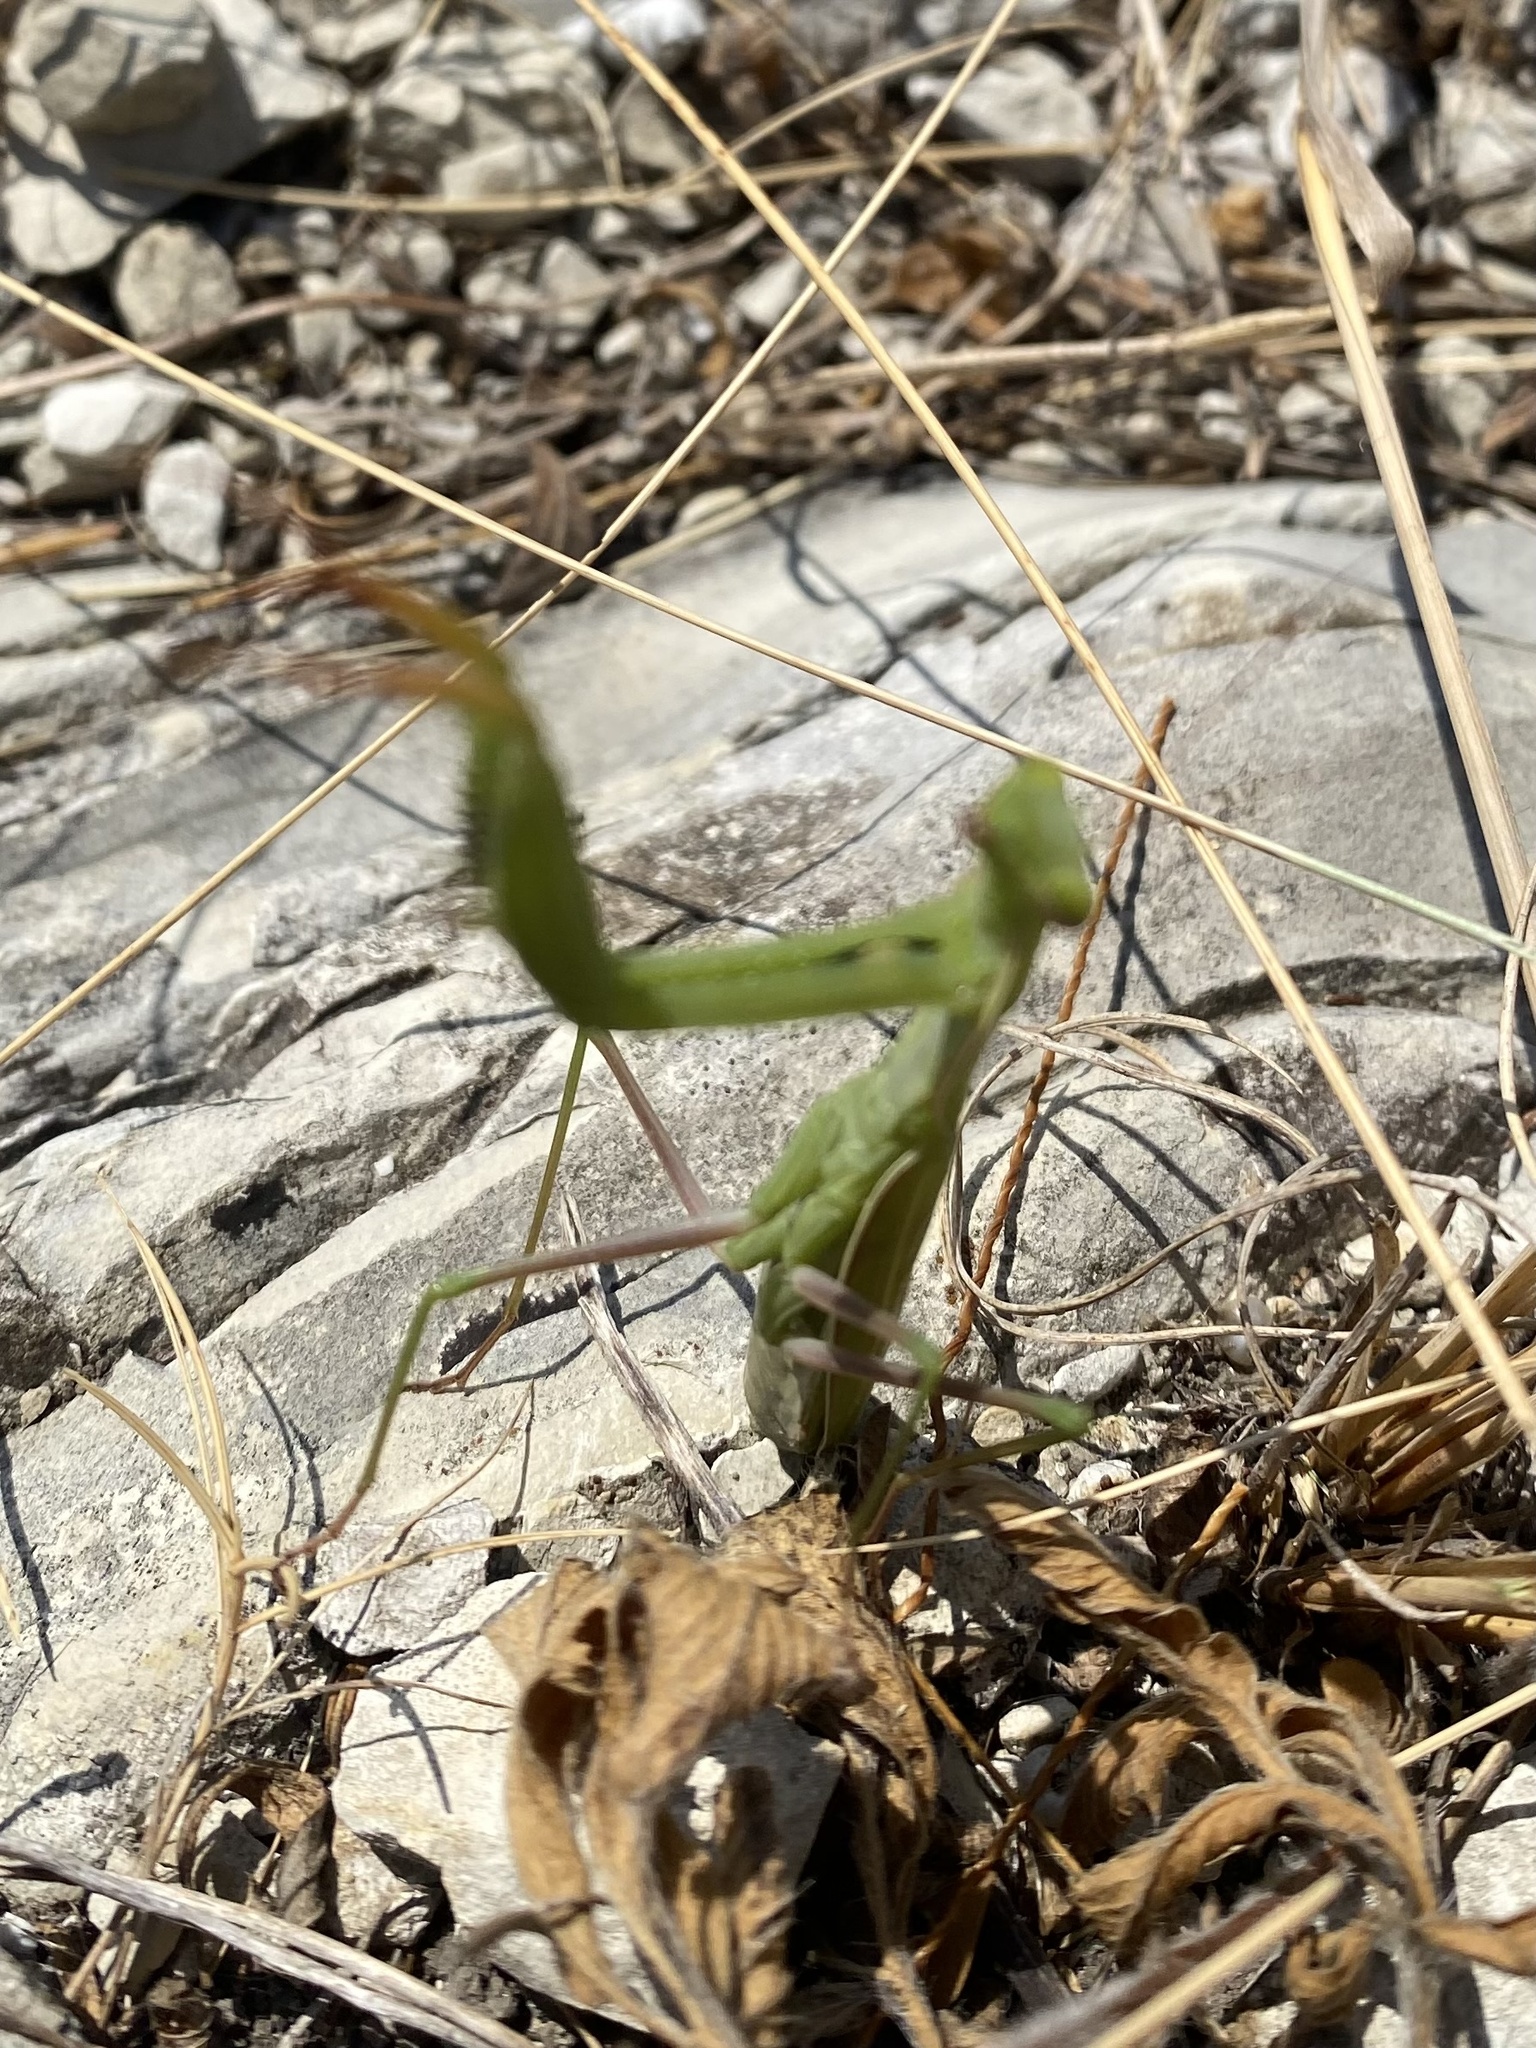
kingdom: Animalia
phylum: Arthropoda
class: Insecta
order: Mantodea
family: Mantidae
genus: Mantis
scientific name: Mantis religiosa
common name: Praying mantis
